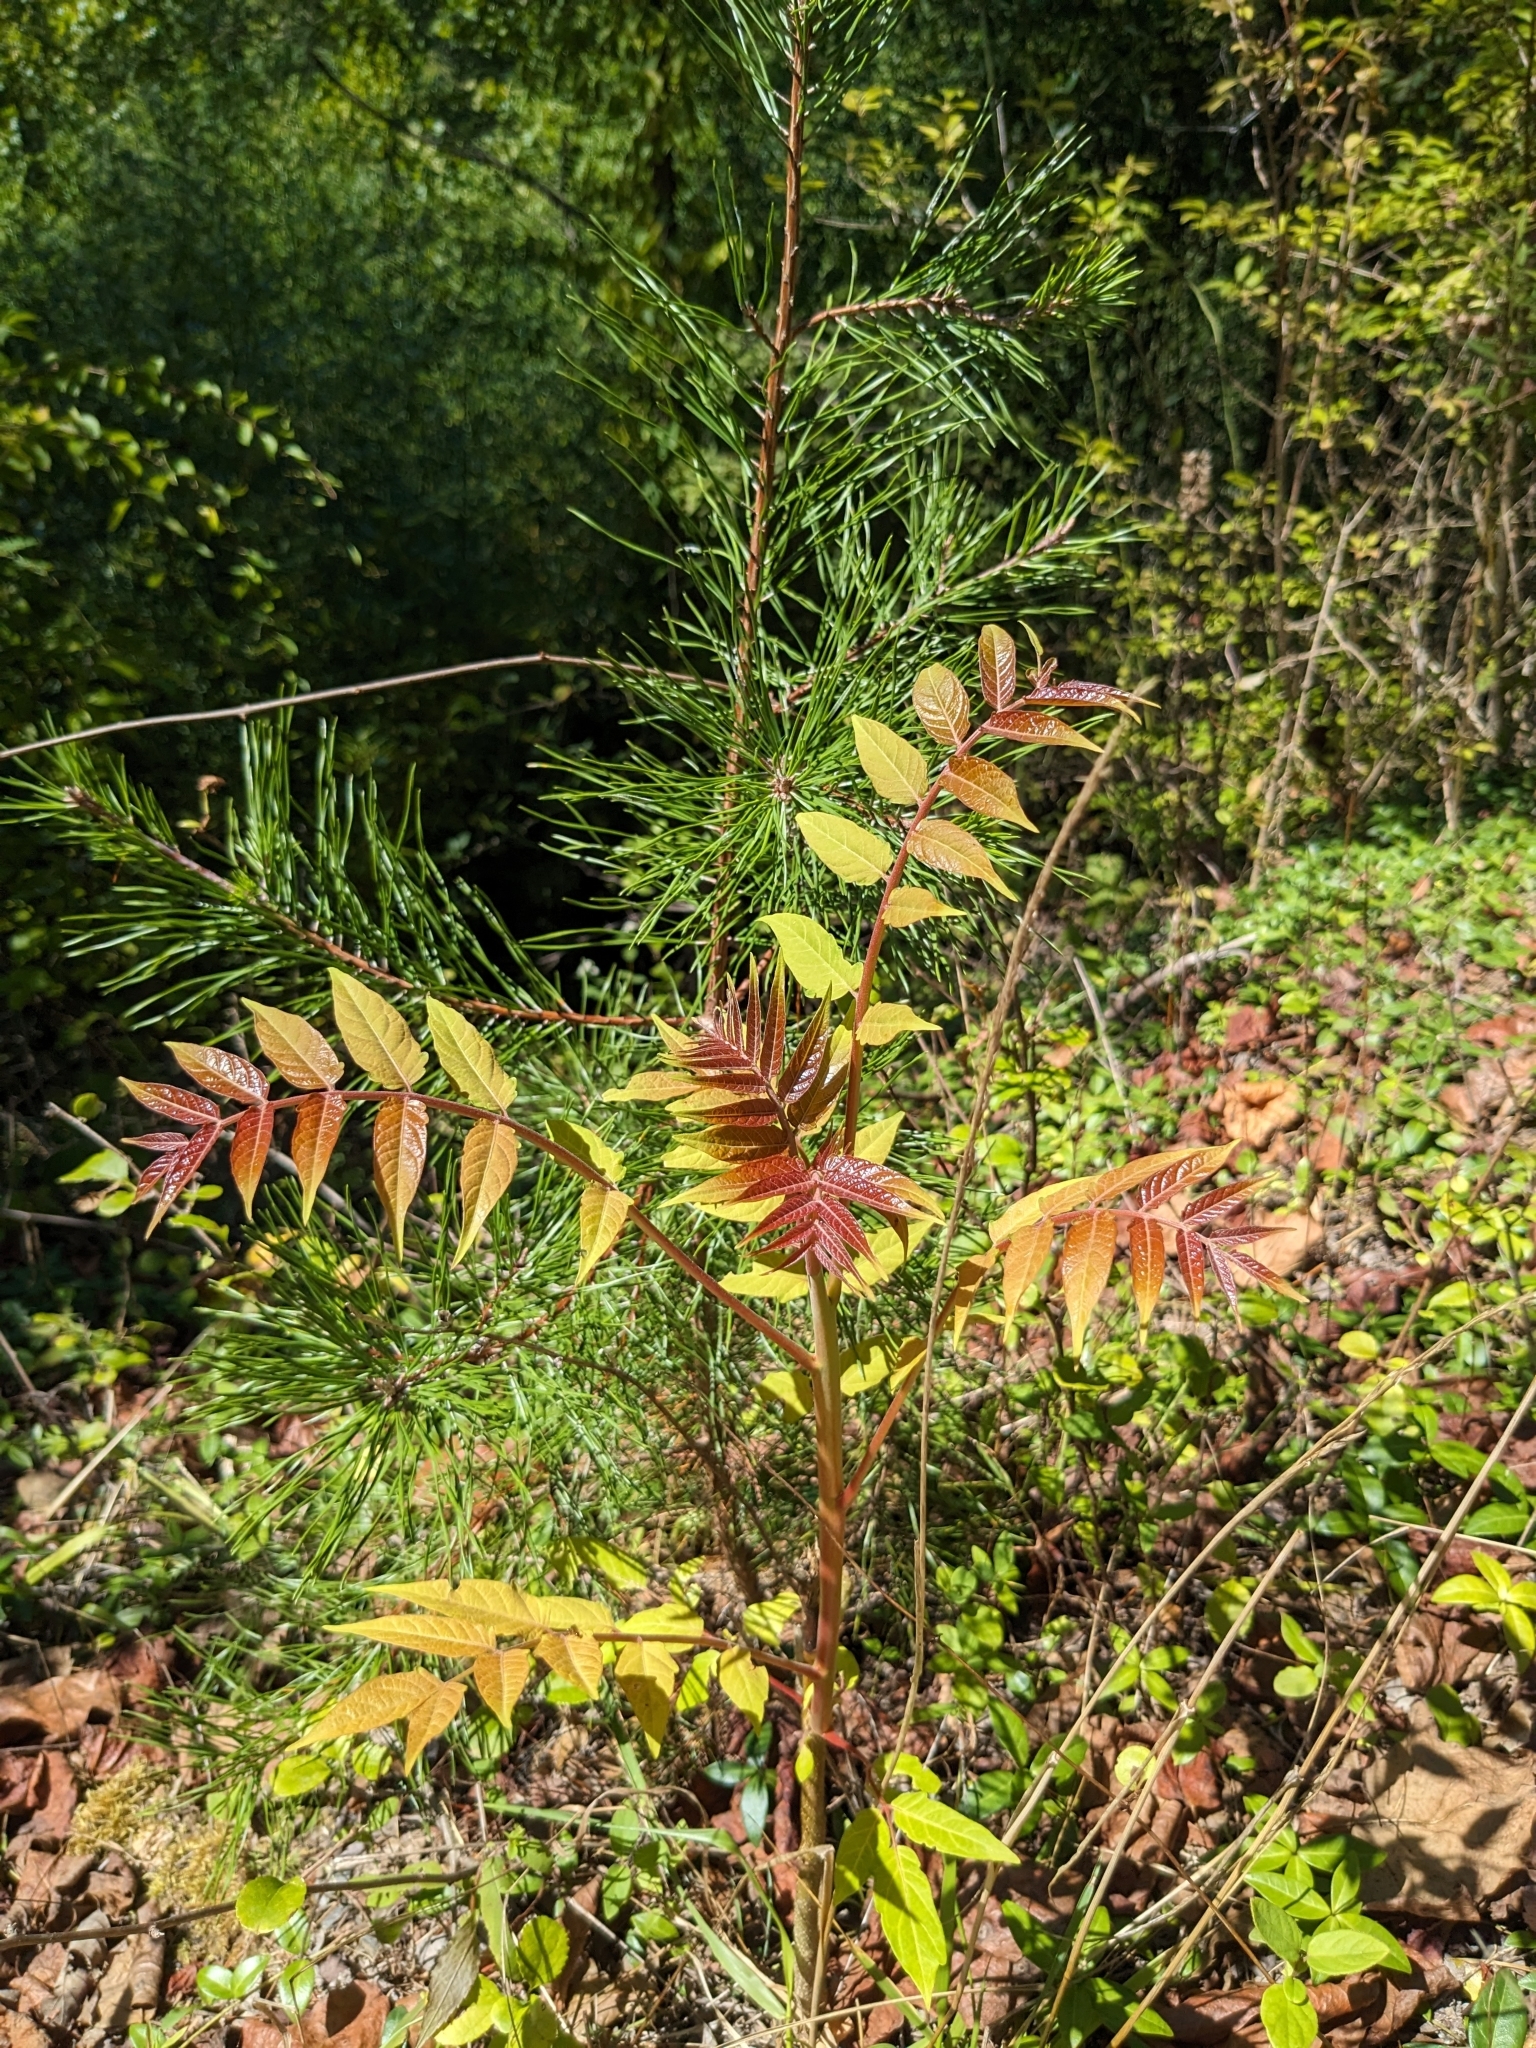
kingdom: Plantae
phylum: Tracheophyta
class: Magnoliopsida
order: Sapindales
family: Simaroubaceae
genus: Ailanthus
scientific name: Ailanthus altissima
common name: Tree-of-heaven
